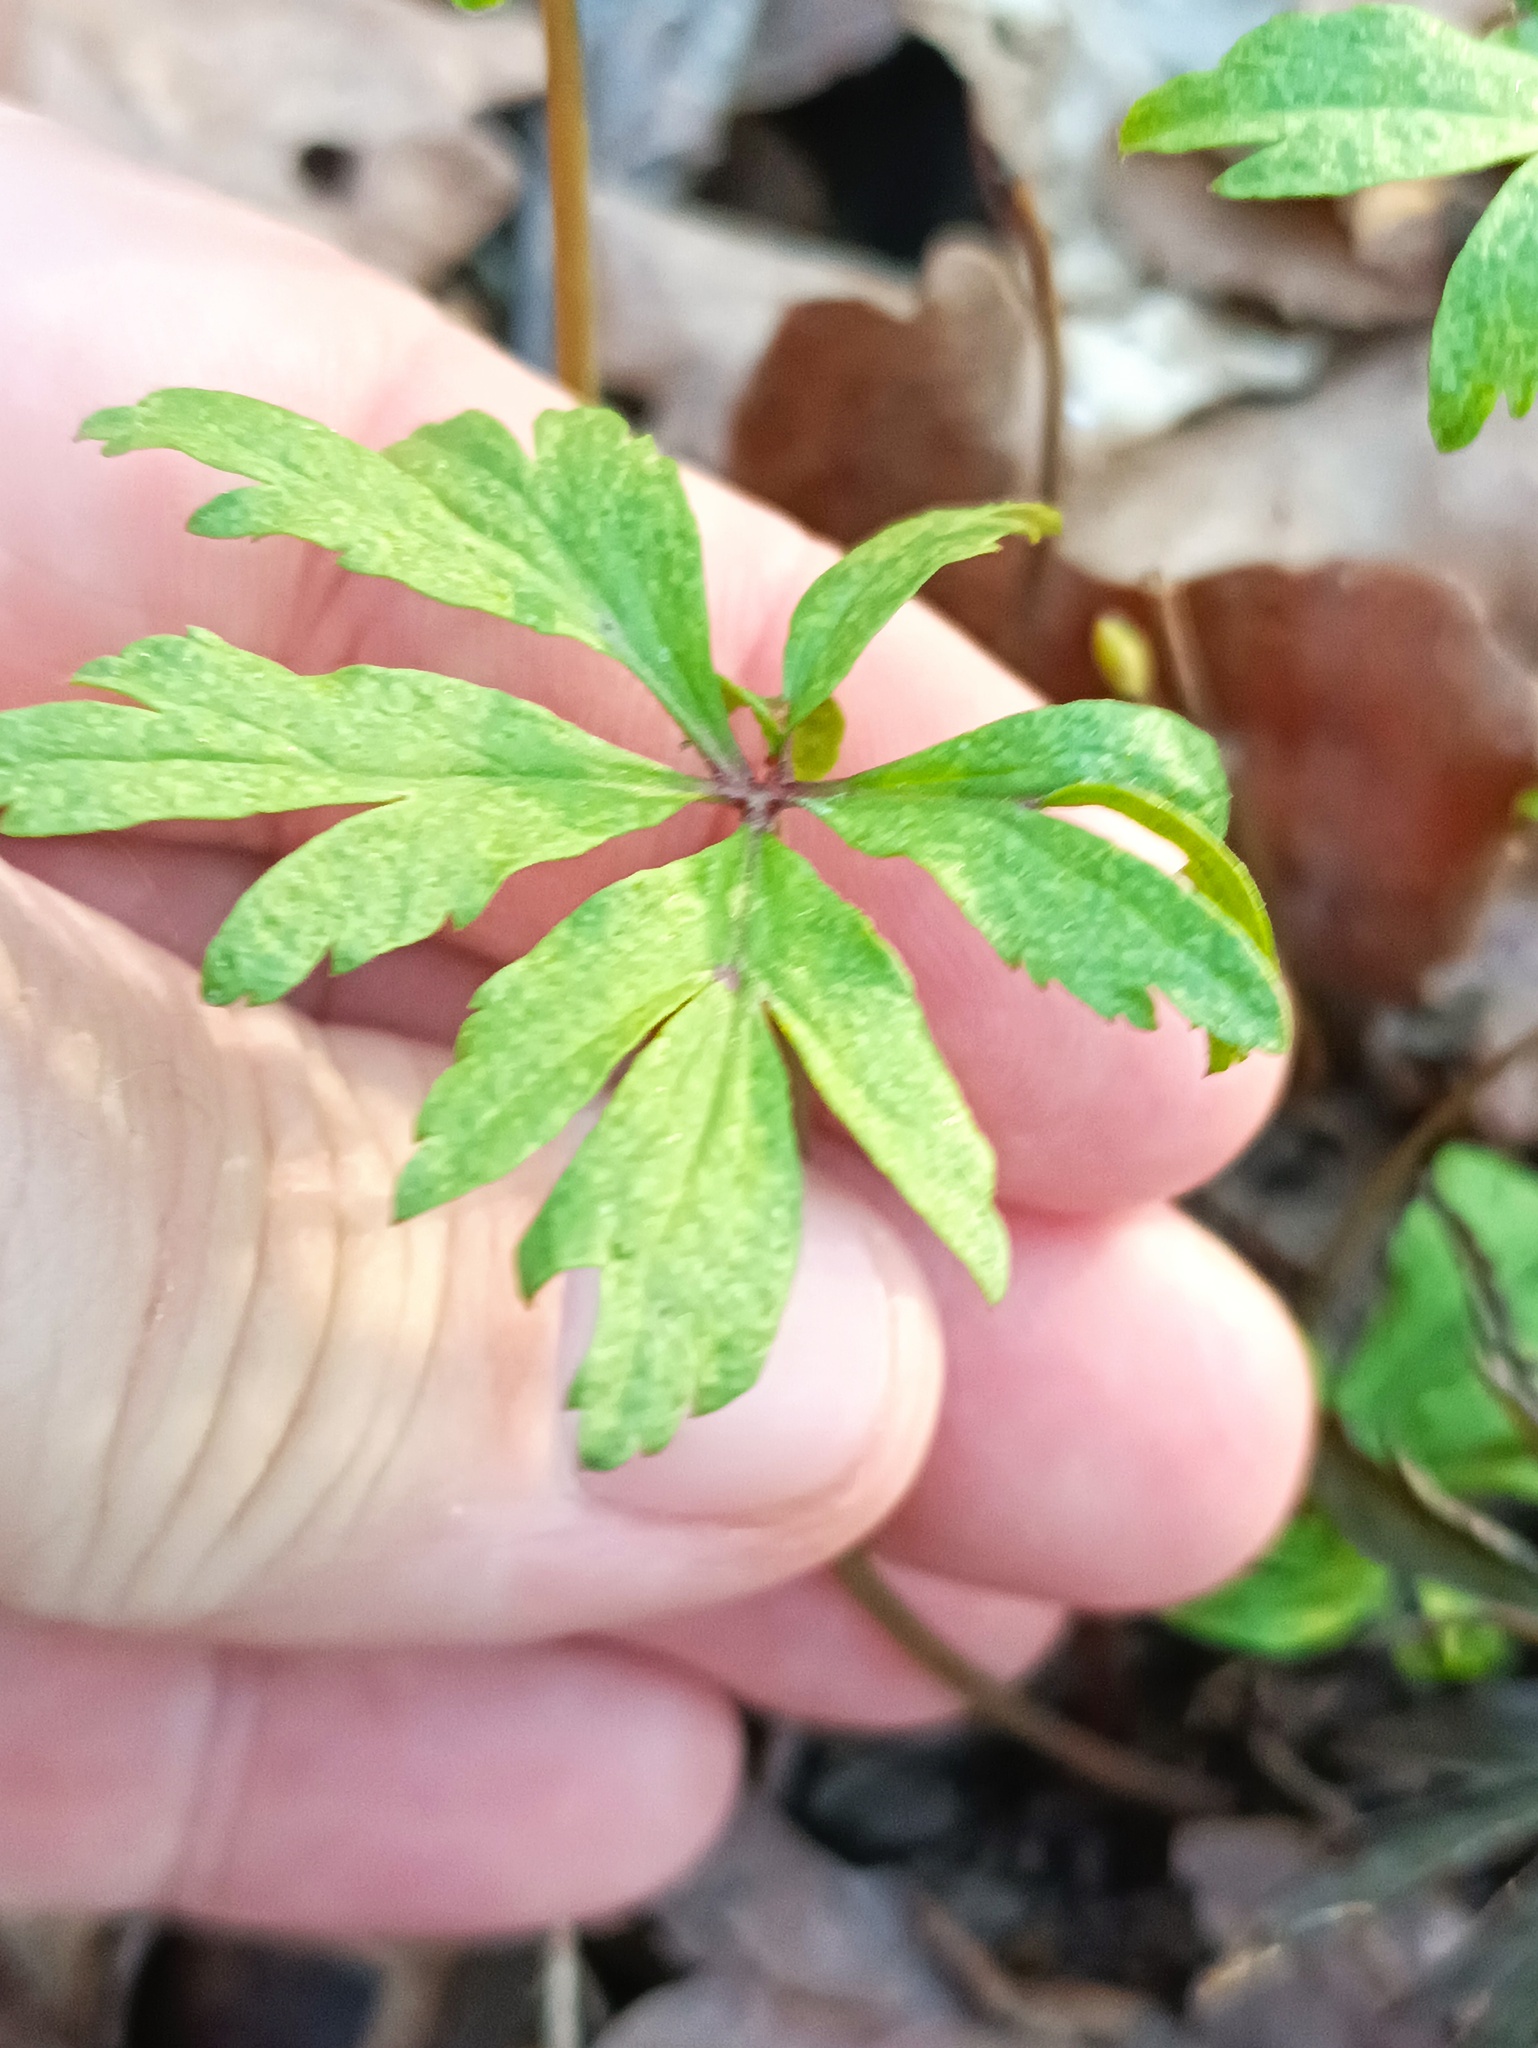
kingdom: Plantae
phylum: Tracheophyta
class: Magnoliopsida
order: Ranunculales
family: Ranunculaceae
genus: Anemone
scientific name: Anemone ranunculoides
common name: Yellow anemone
